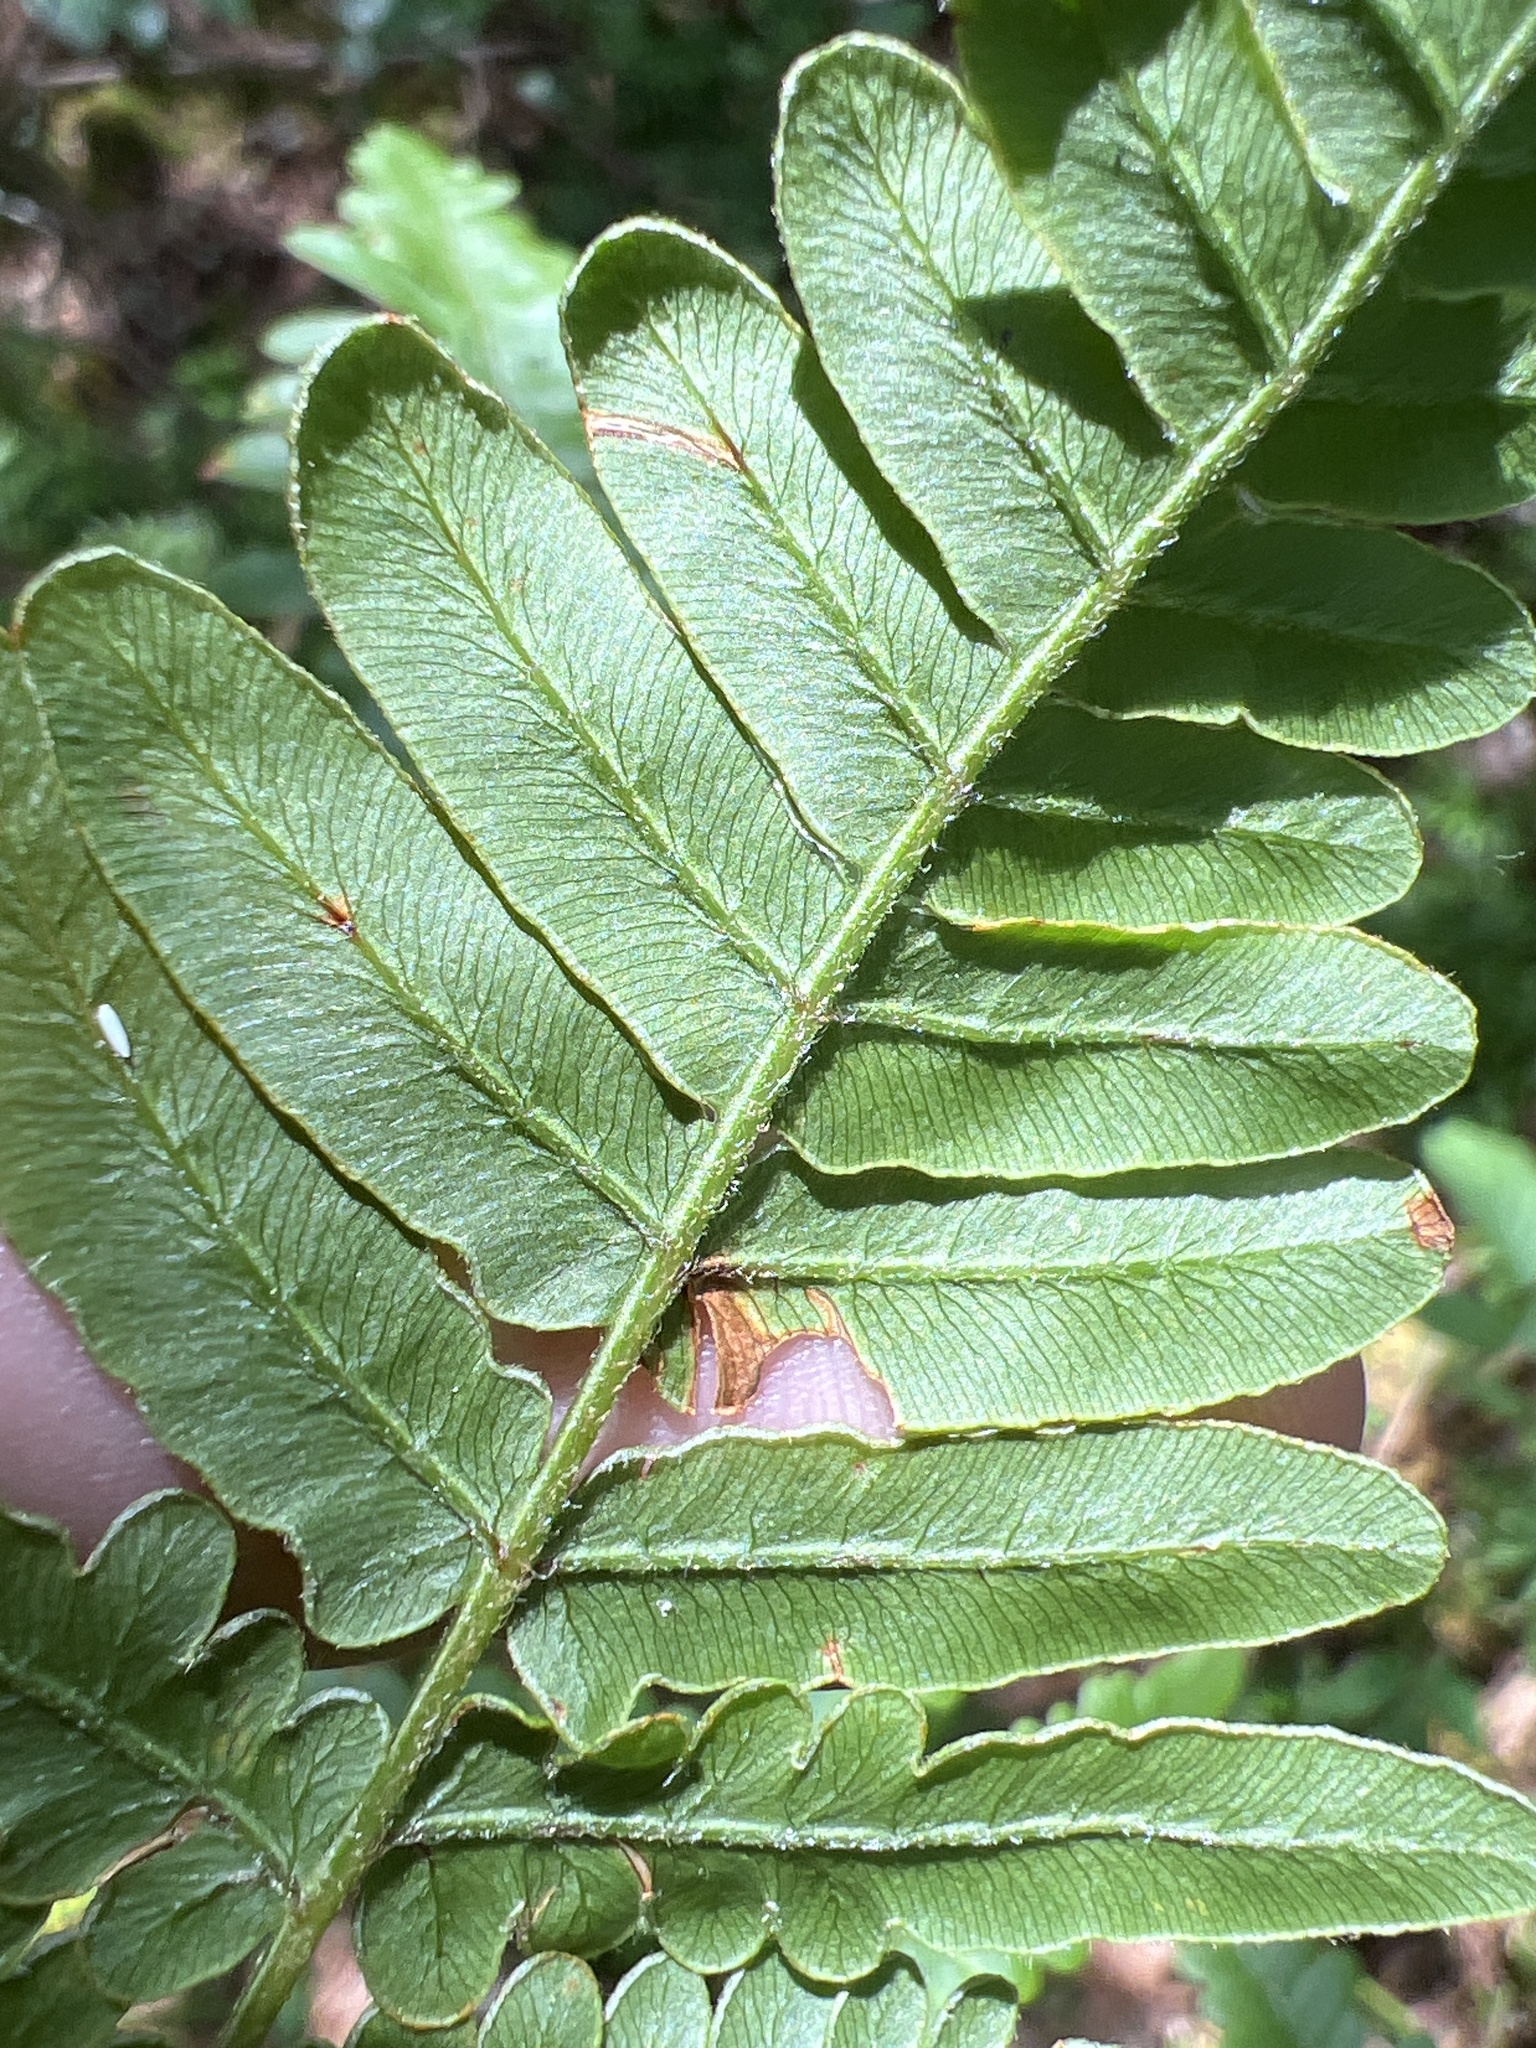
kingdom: Plantae
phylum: Tracheophyta
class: Polypodiopsida
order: Polypodiales
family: Dennstaedtiaceae
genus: Pteridium
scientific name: Pteridium aquilinum
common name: Bracken
